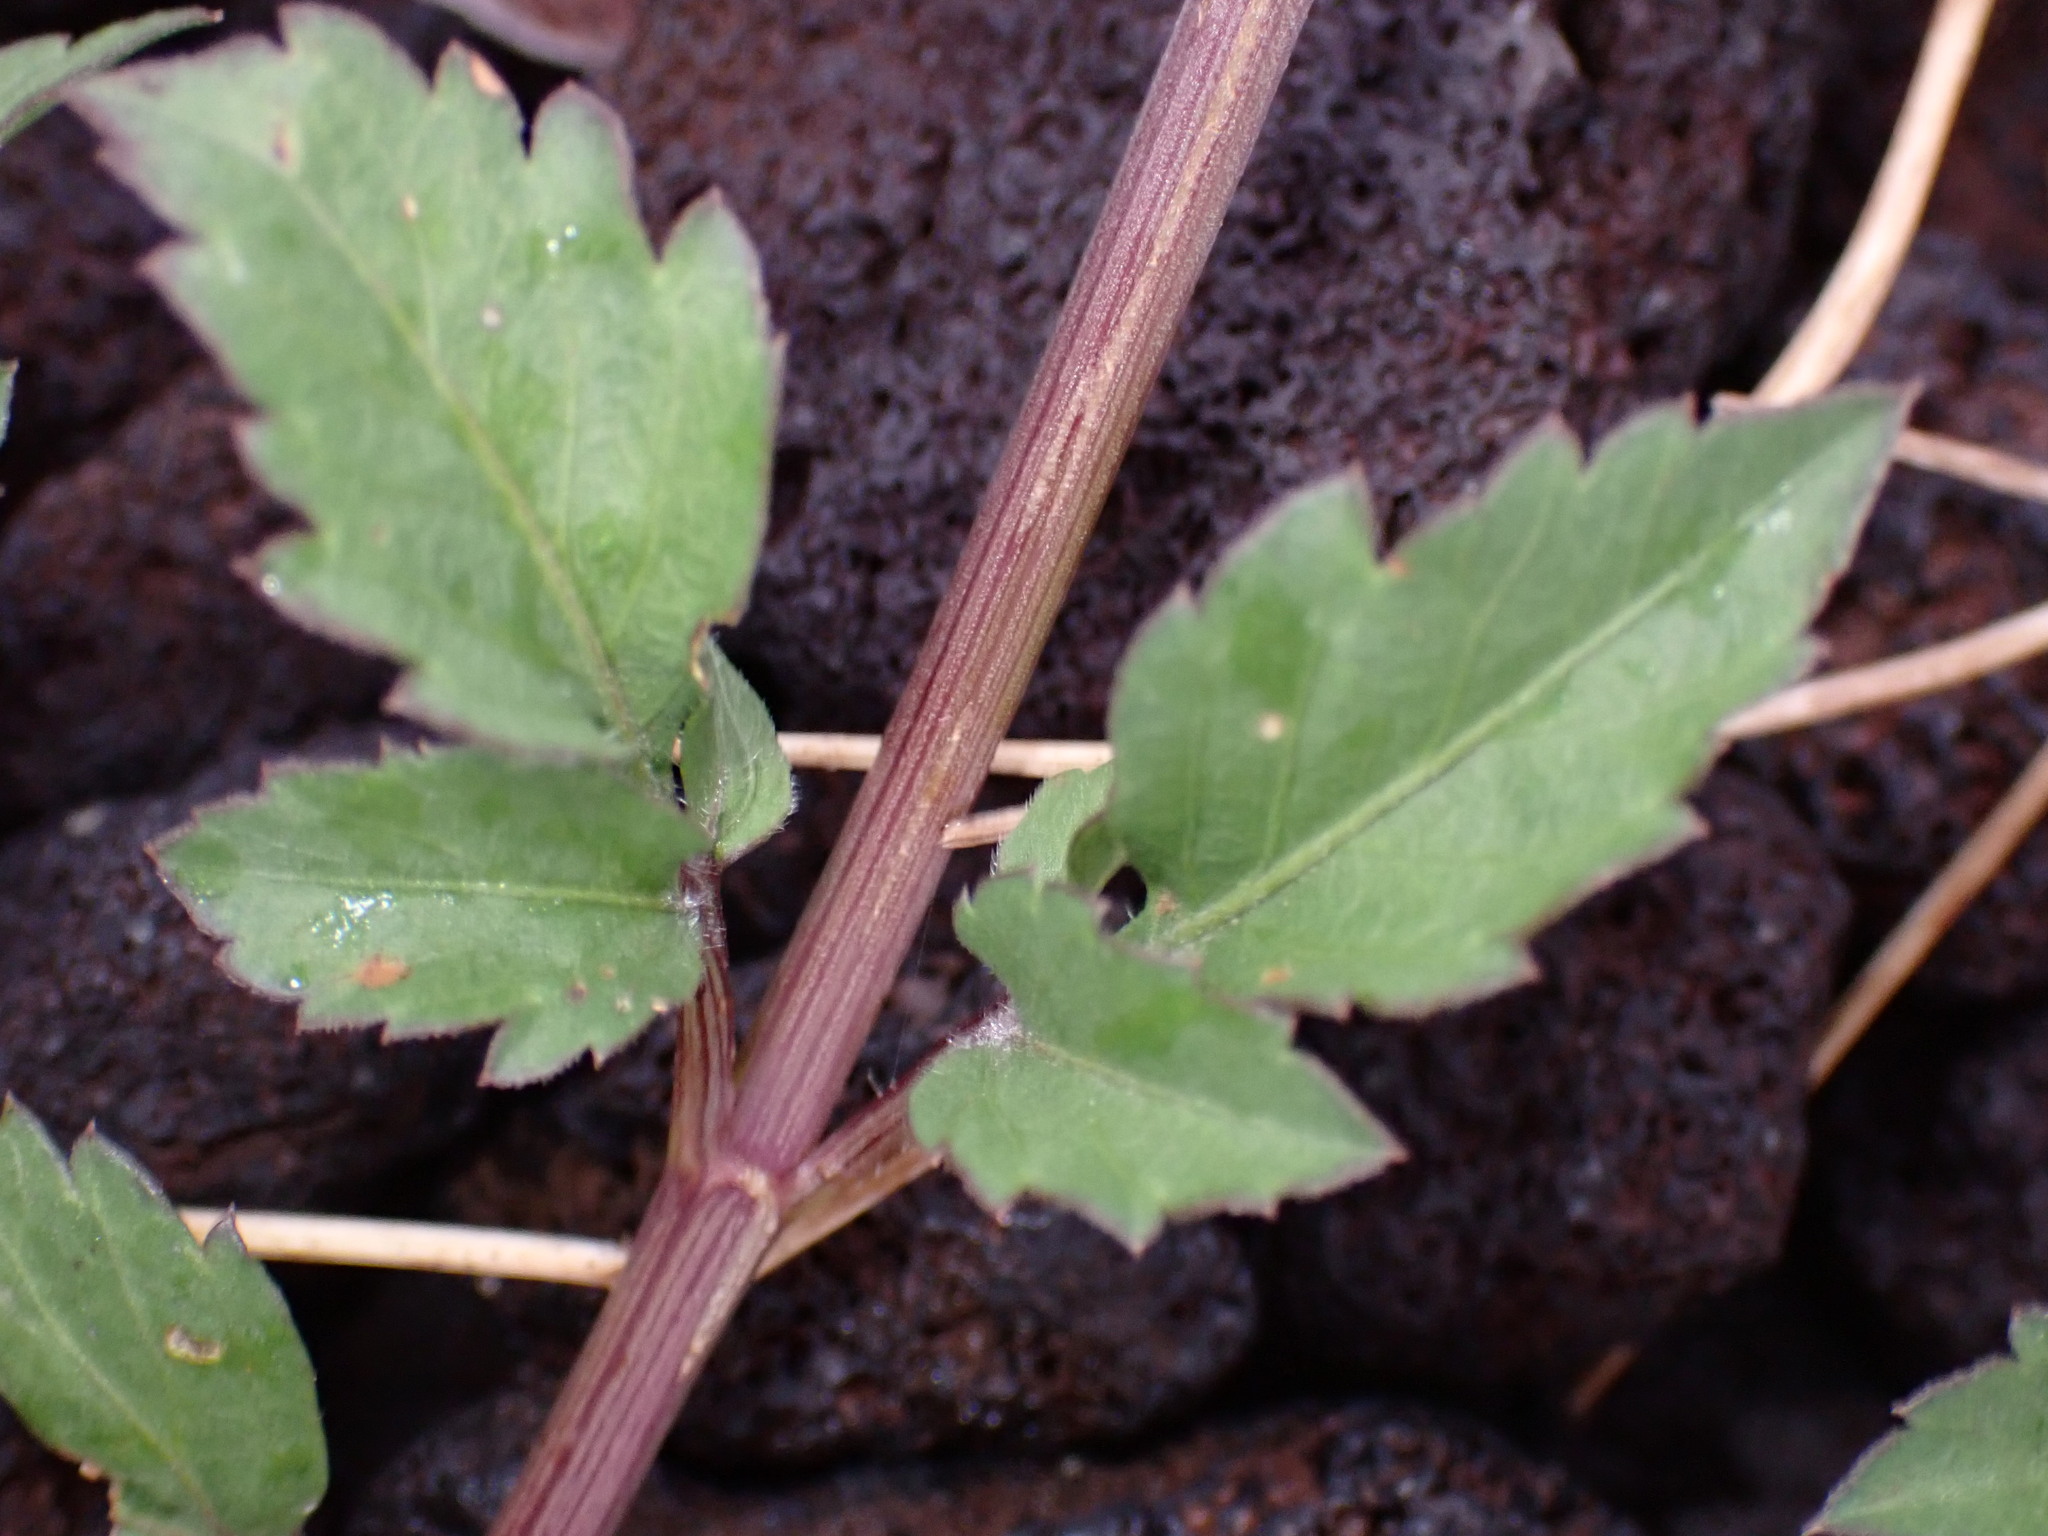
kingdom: Plantae
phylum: Tracheophyta
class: Magnoliopsida
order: Asterales
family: Asteraceae
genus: Bidens
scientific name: Bidens pilosa
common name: Black-jack
